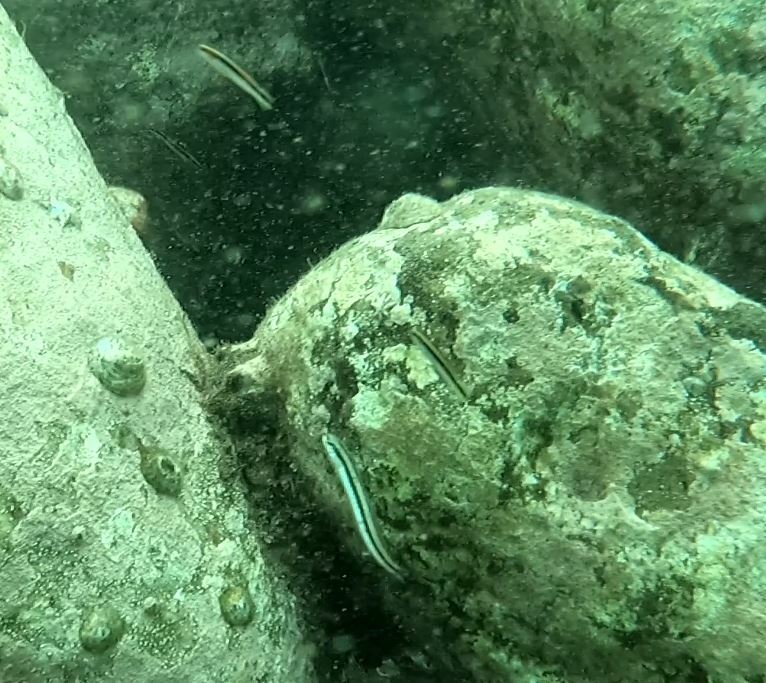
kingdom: Animalia
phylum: Chordata
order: Perciformes
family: Plesiopidae
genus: Trachinops
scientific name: Trachinops taeniatus
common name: Eastern hulafish
